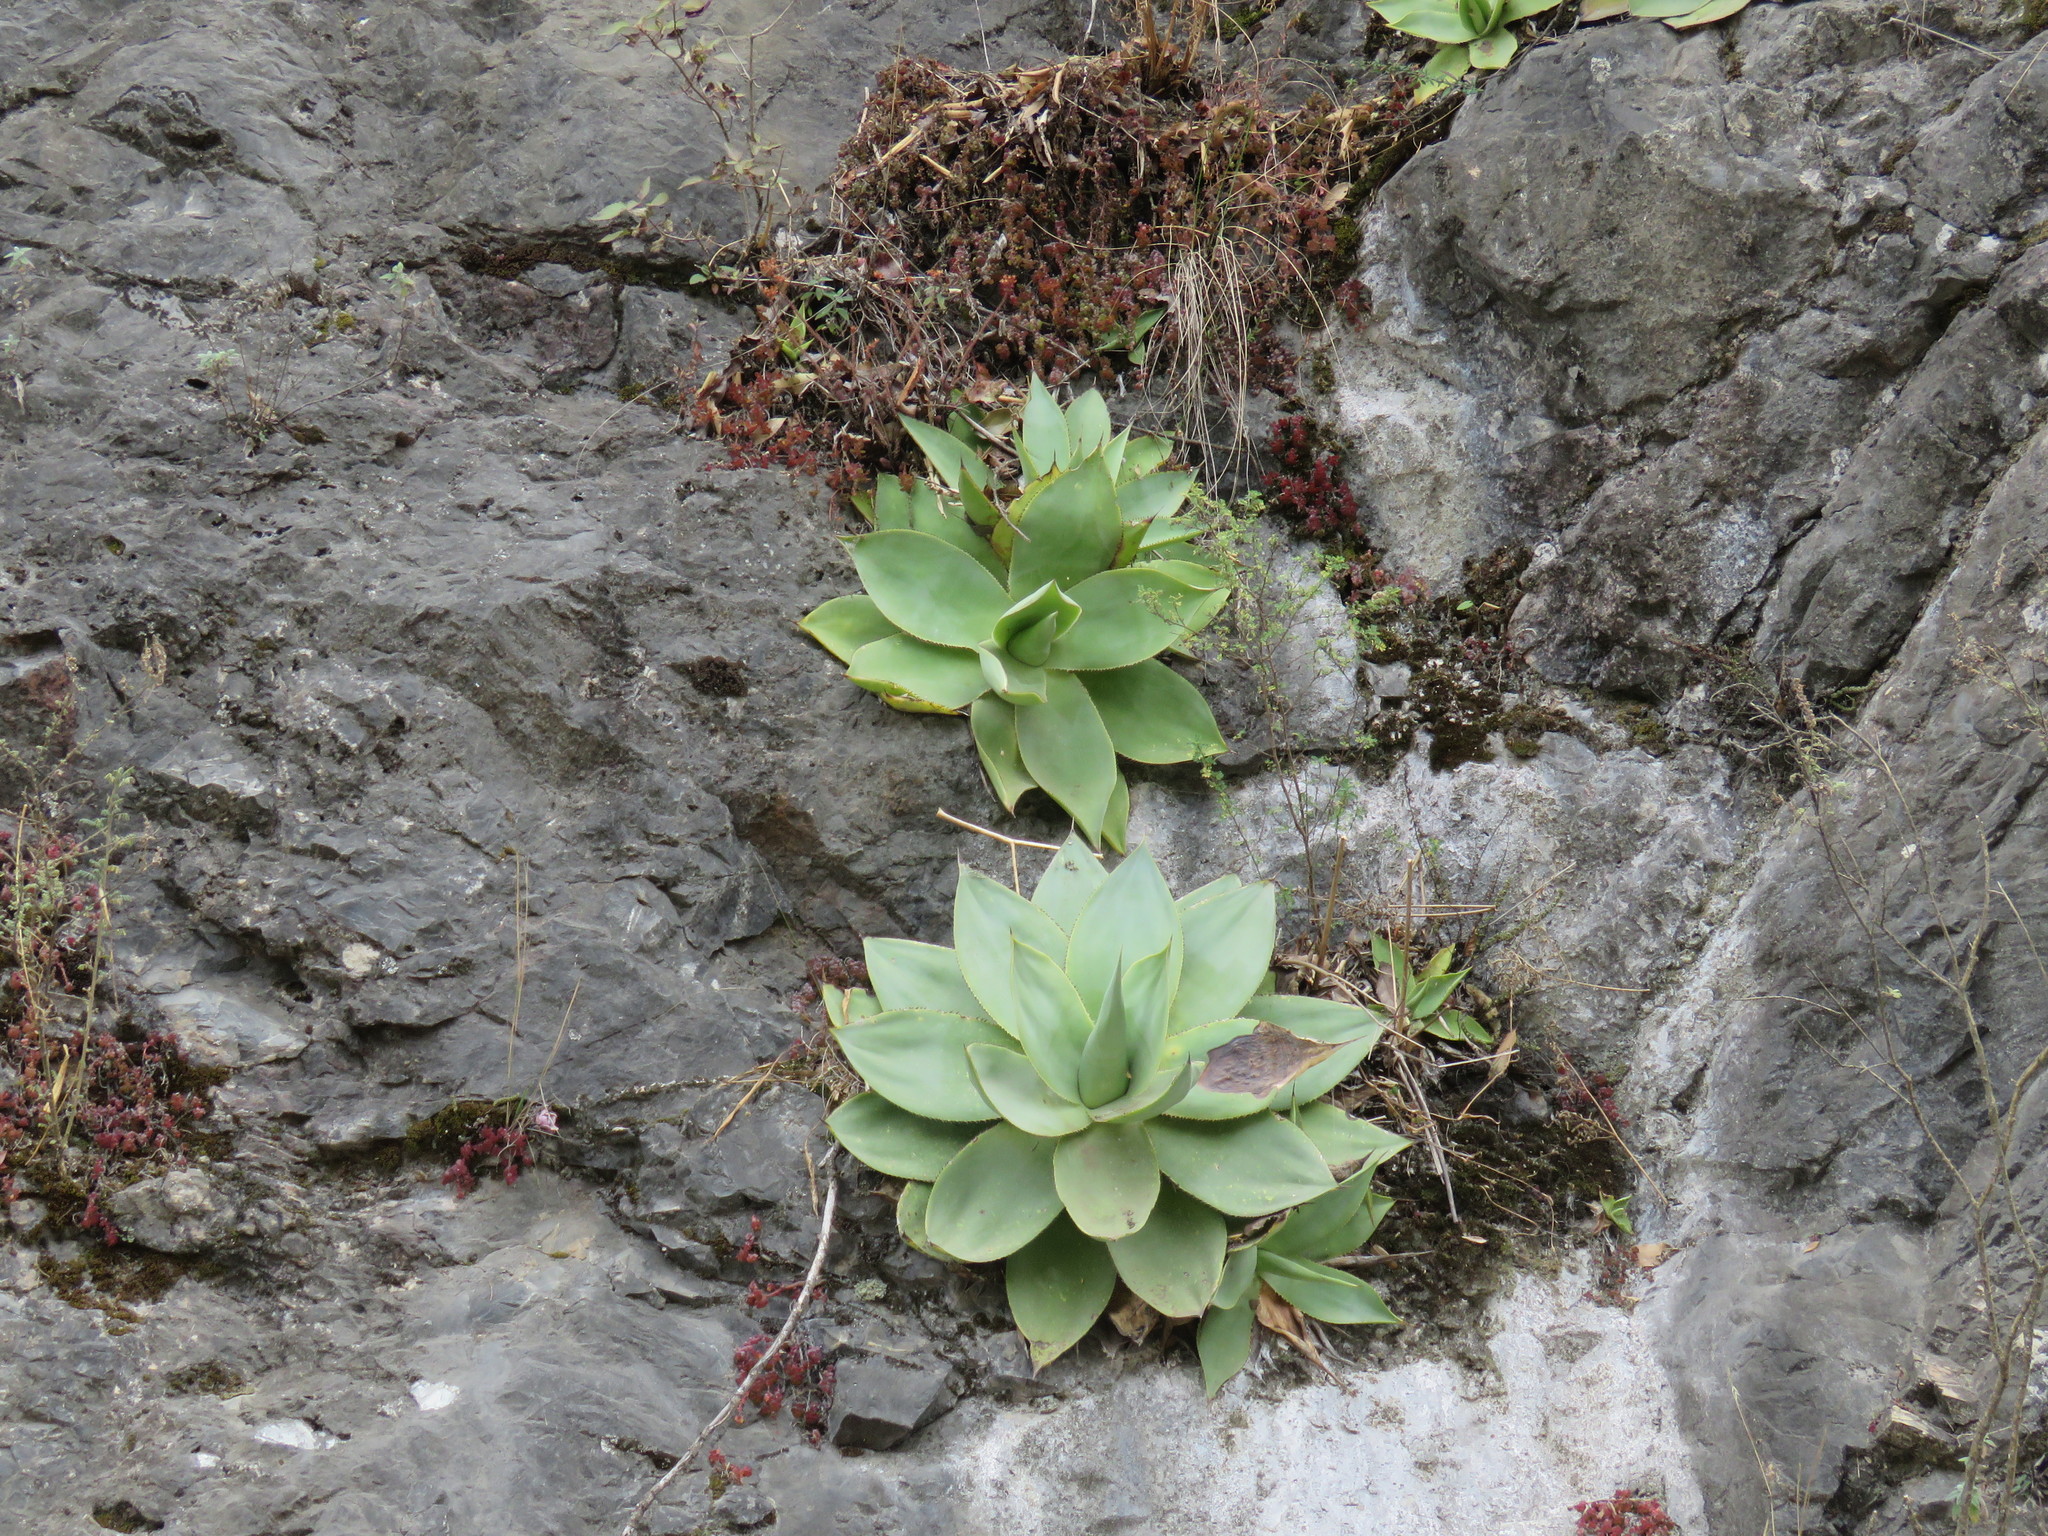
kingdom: Plantae
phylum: Tracheophyta
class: Liliopsida
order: Asparagales
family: Asparagaceae
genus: Agave
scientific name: Agave mitis
